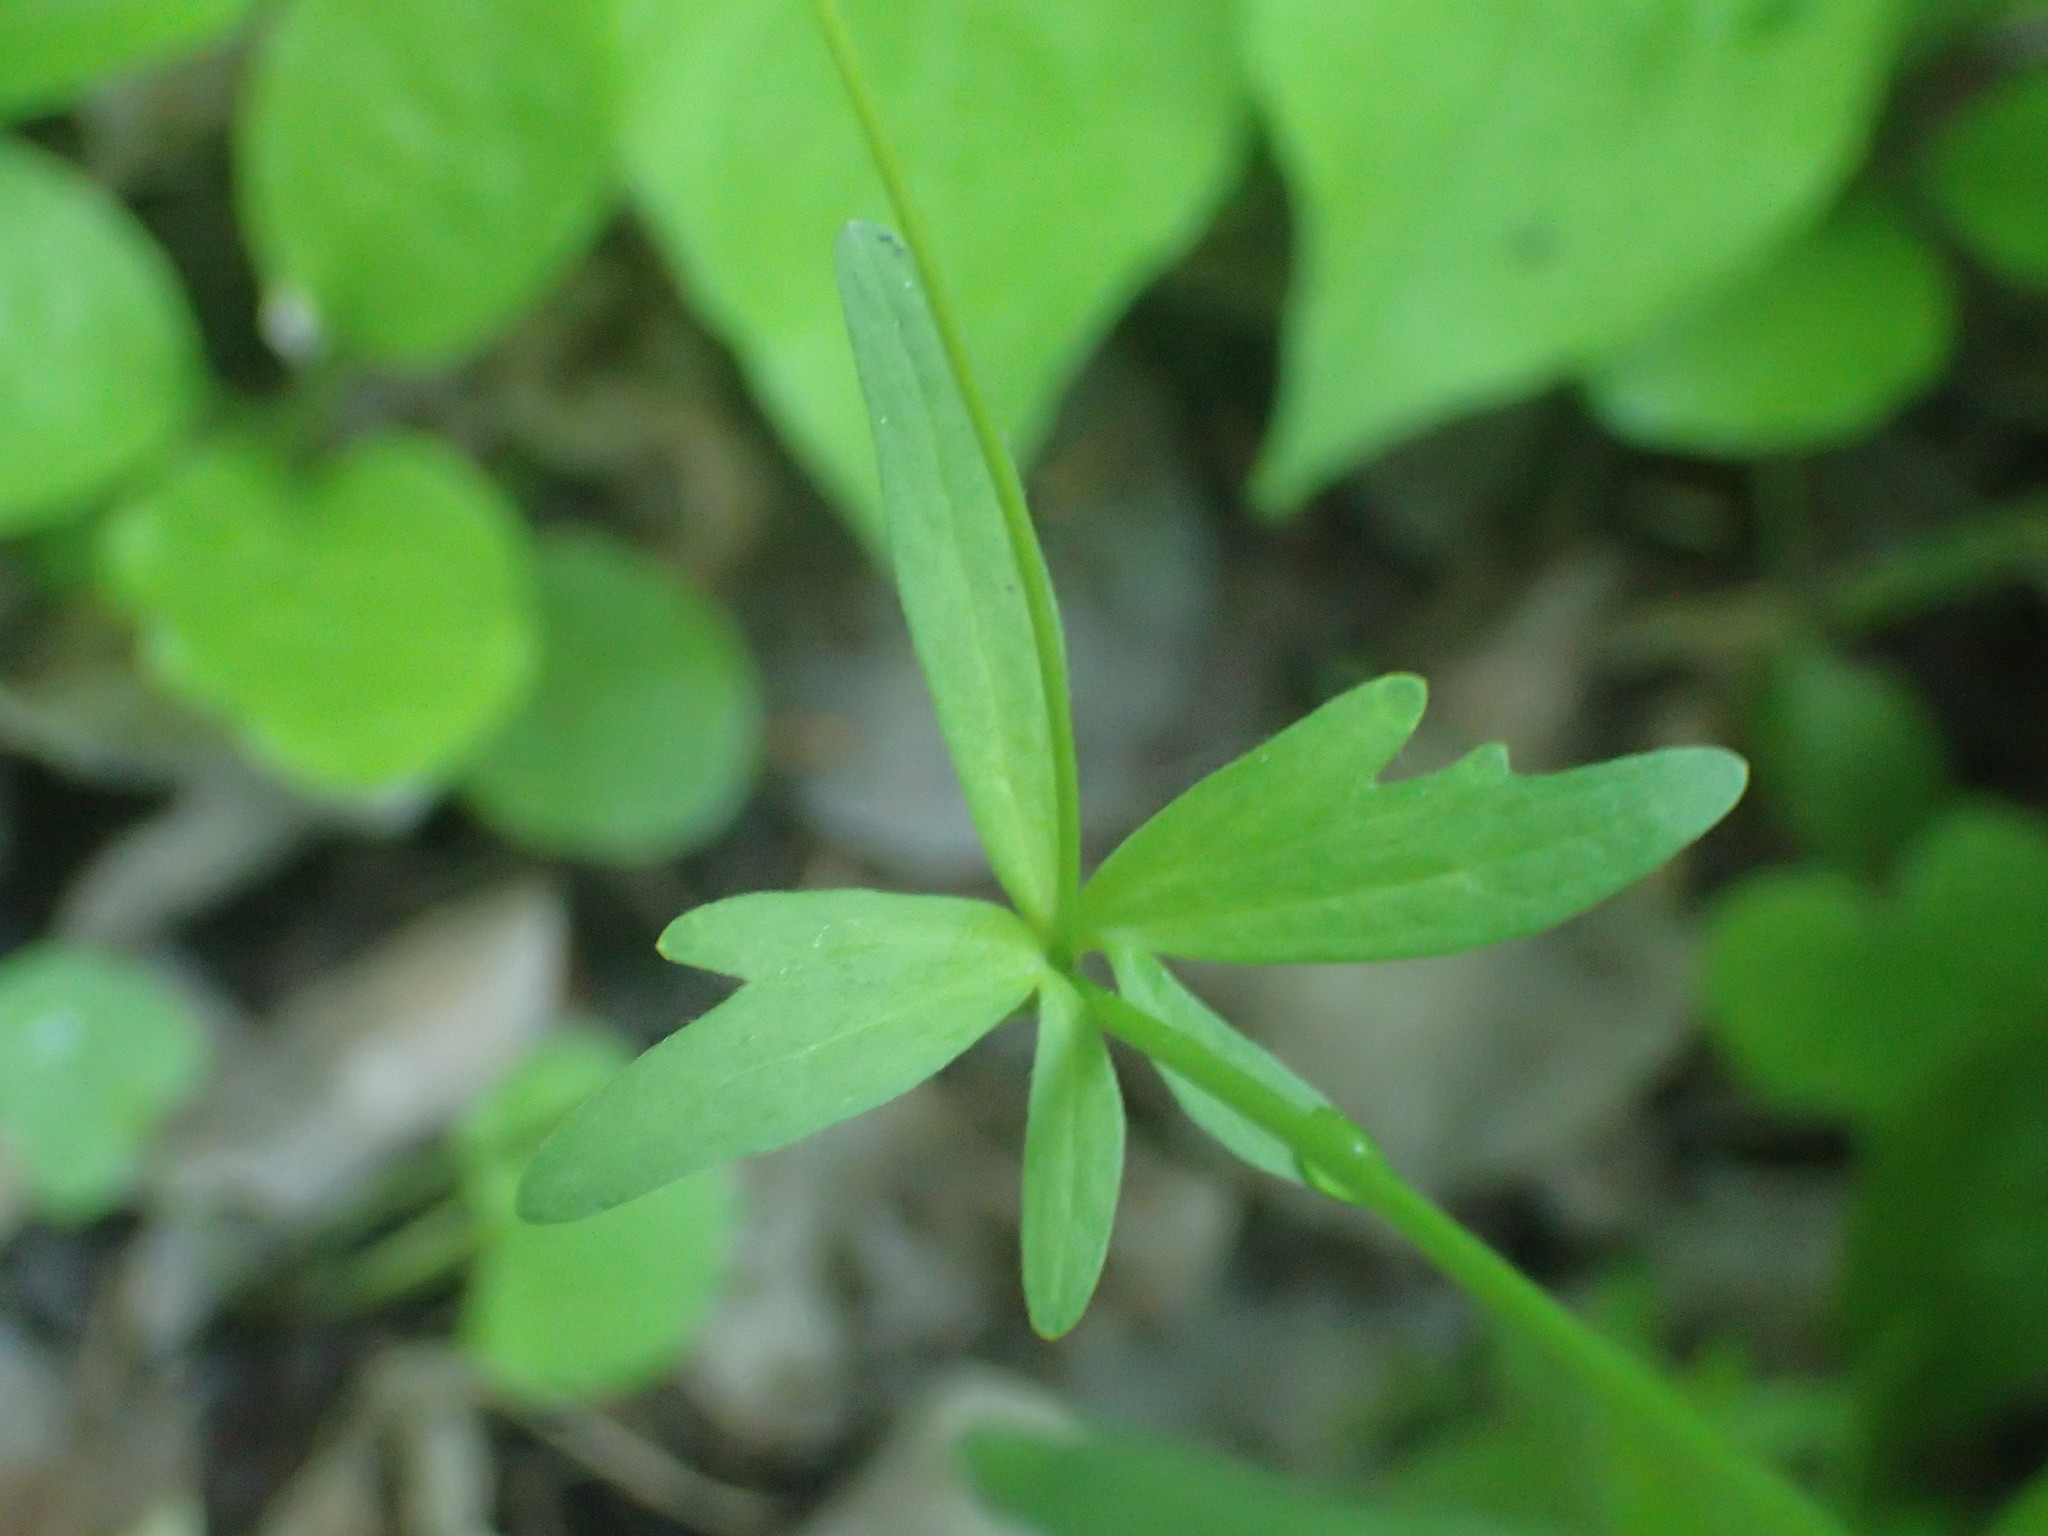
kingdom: Plantae
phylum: Tracheophyta
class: Magnoliopsida
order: Ranunculales
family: Ranunculaceae
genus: Ranunculus
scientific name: Ranunculus abortivus
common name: Early wood buttercup
